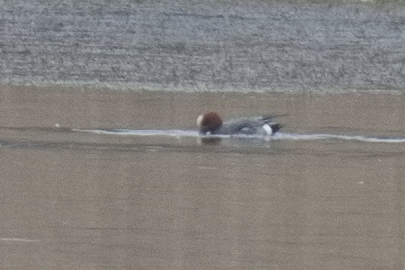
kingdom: Animalia
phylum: Chordata
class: Aves
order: Anseriformes
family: Anatidae
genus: Mareca
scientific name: Mareca penelope
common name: Eurasian wigeon
